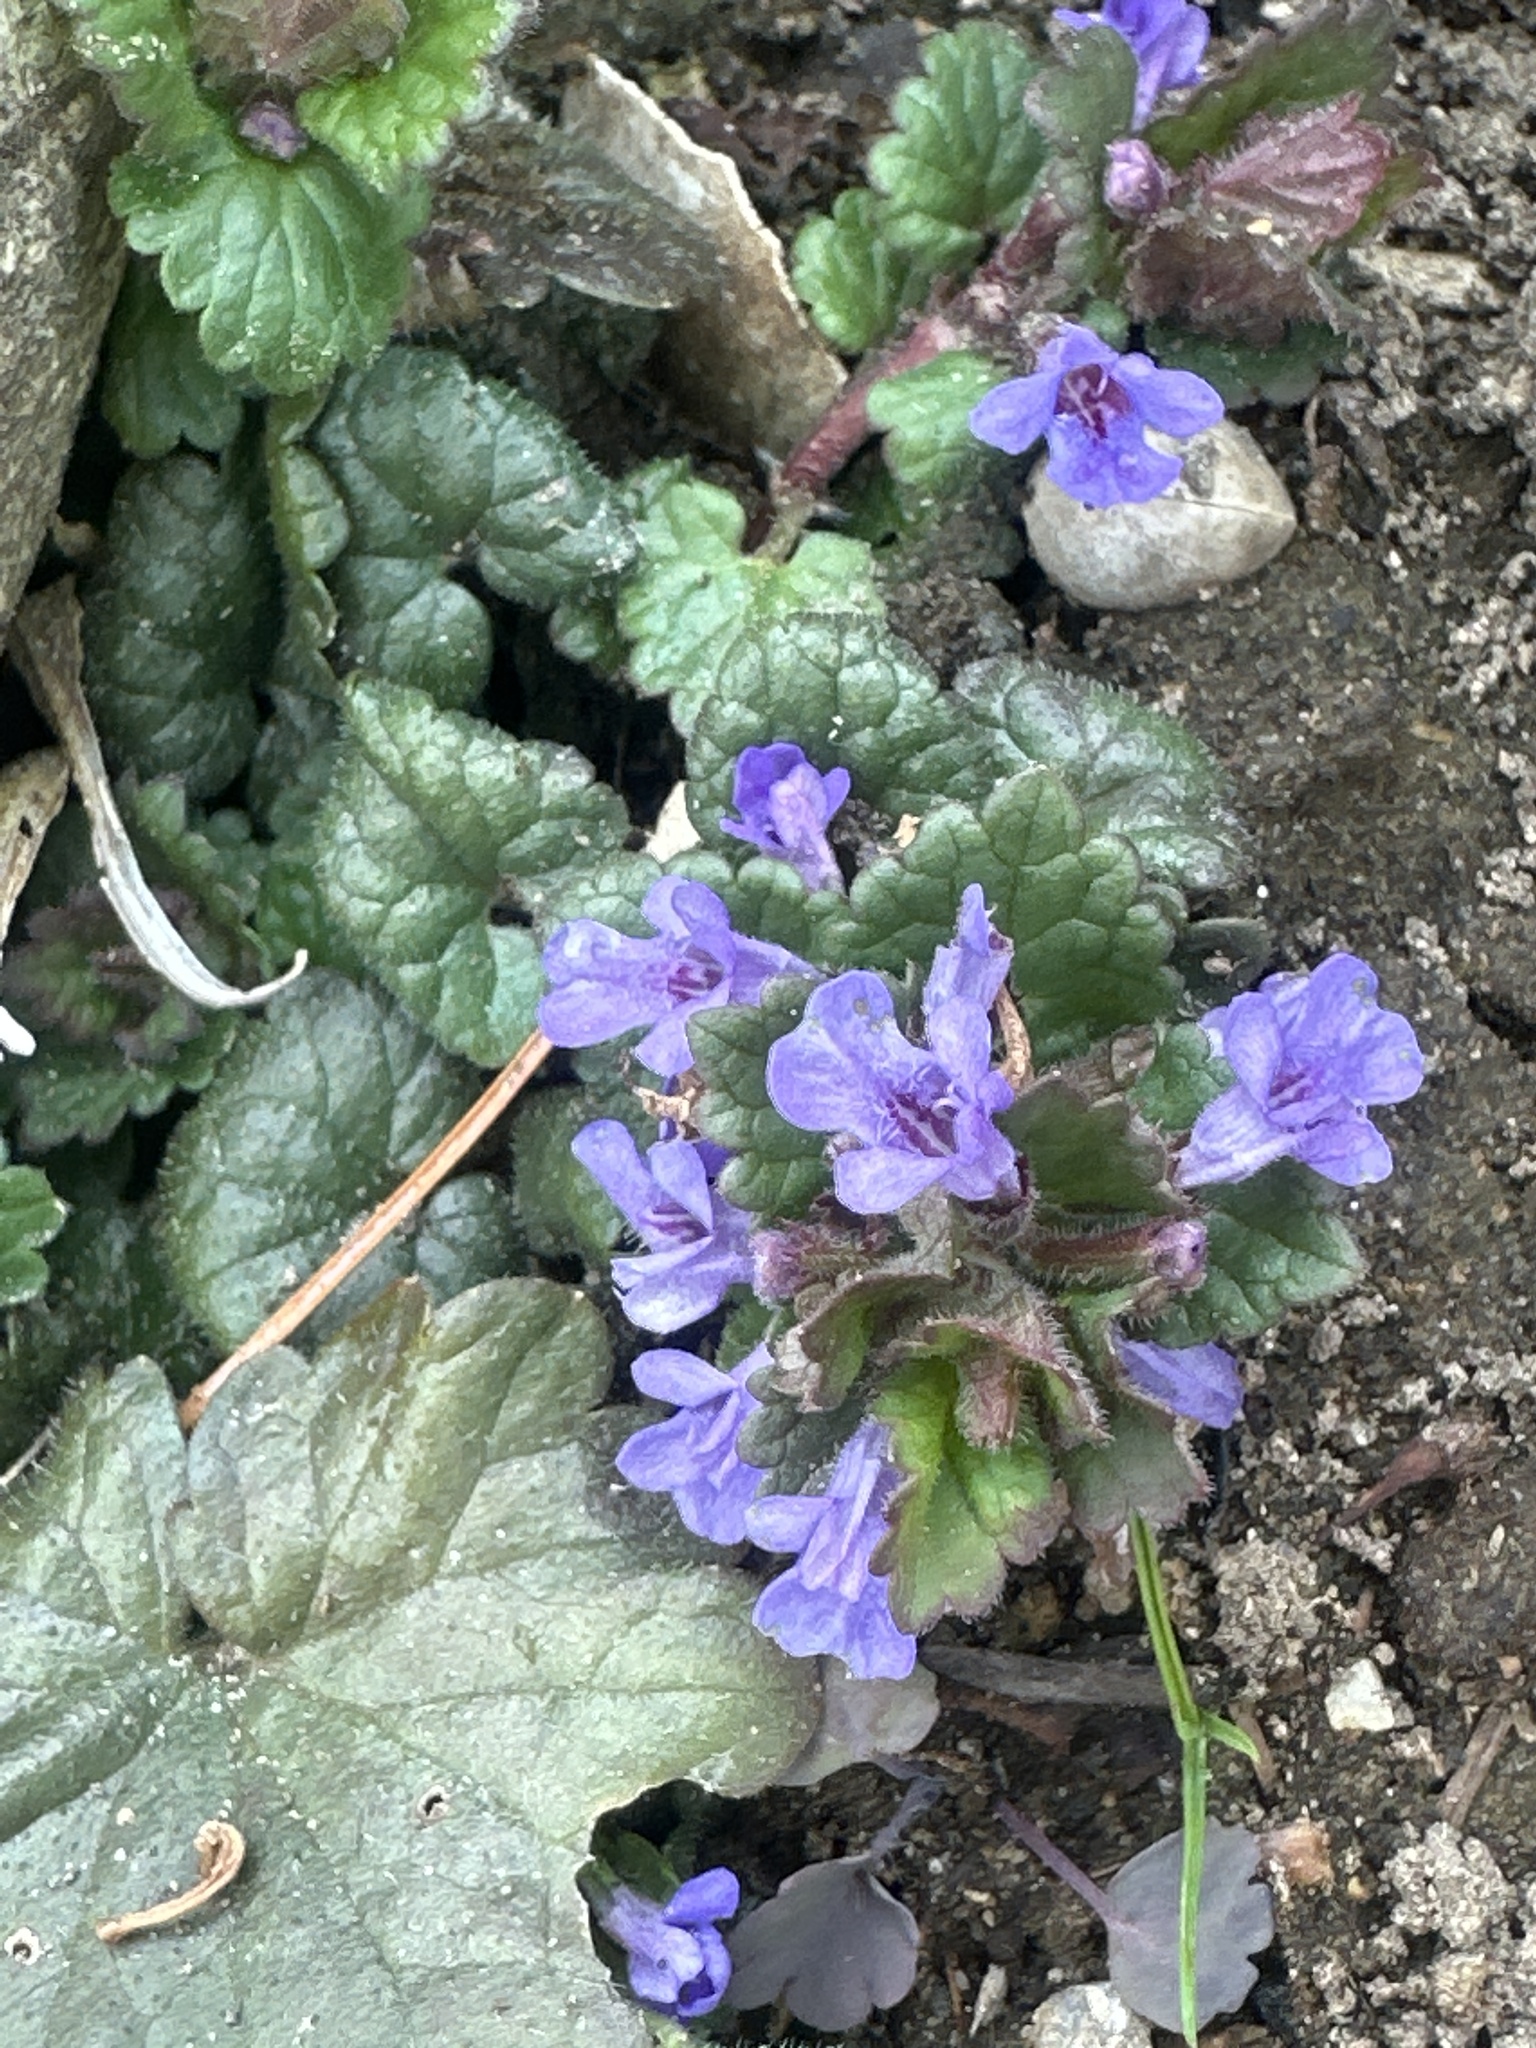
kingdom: Plantae
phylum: Tracheophyta
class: Magnoliopsida
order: Lamiales
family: Lamiaceae
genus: Glechoma
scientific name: Glechoma hederacea
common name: Ground ivy
